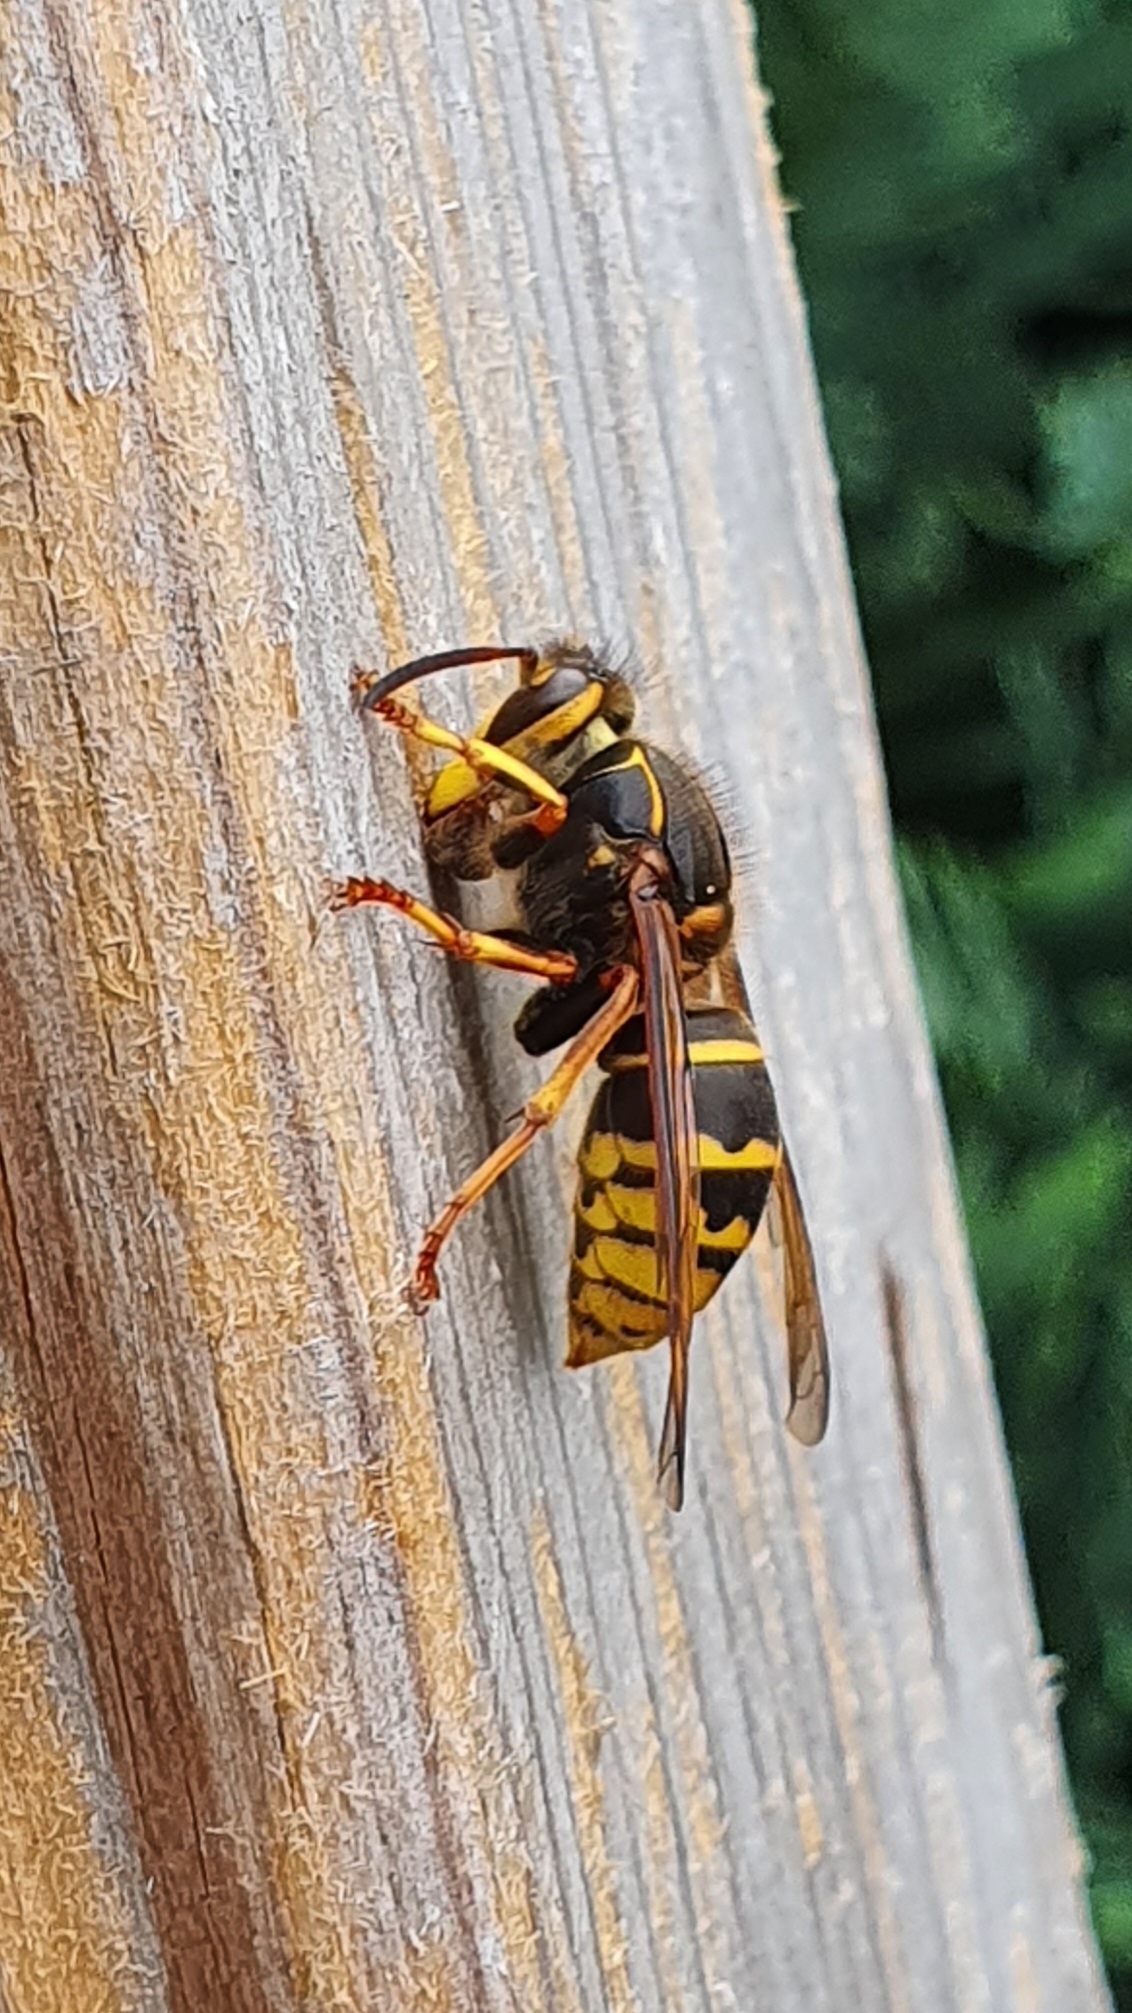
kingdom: Animalia
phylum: Arthropoda
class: Insecta
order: Hymenoptera
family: Vespidae
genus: Dolichovespula
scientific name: Dolichovespula media
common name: Median wasp
